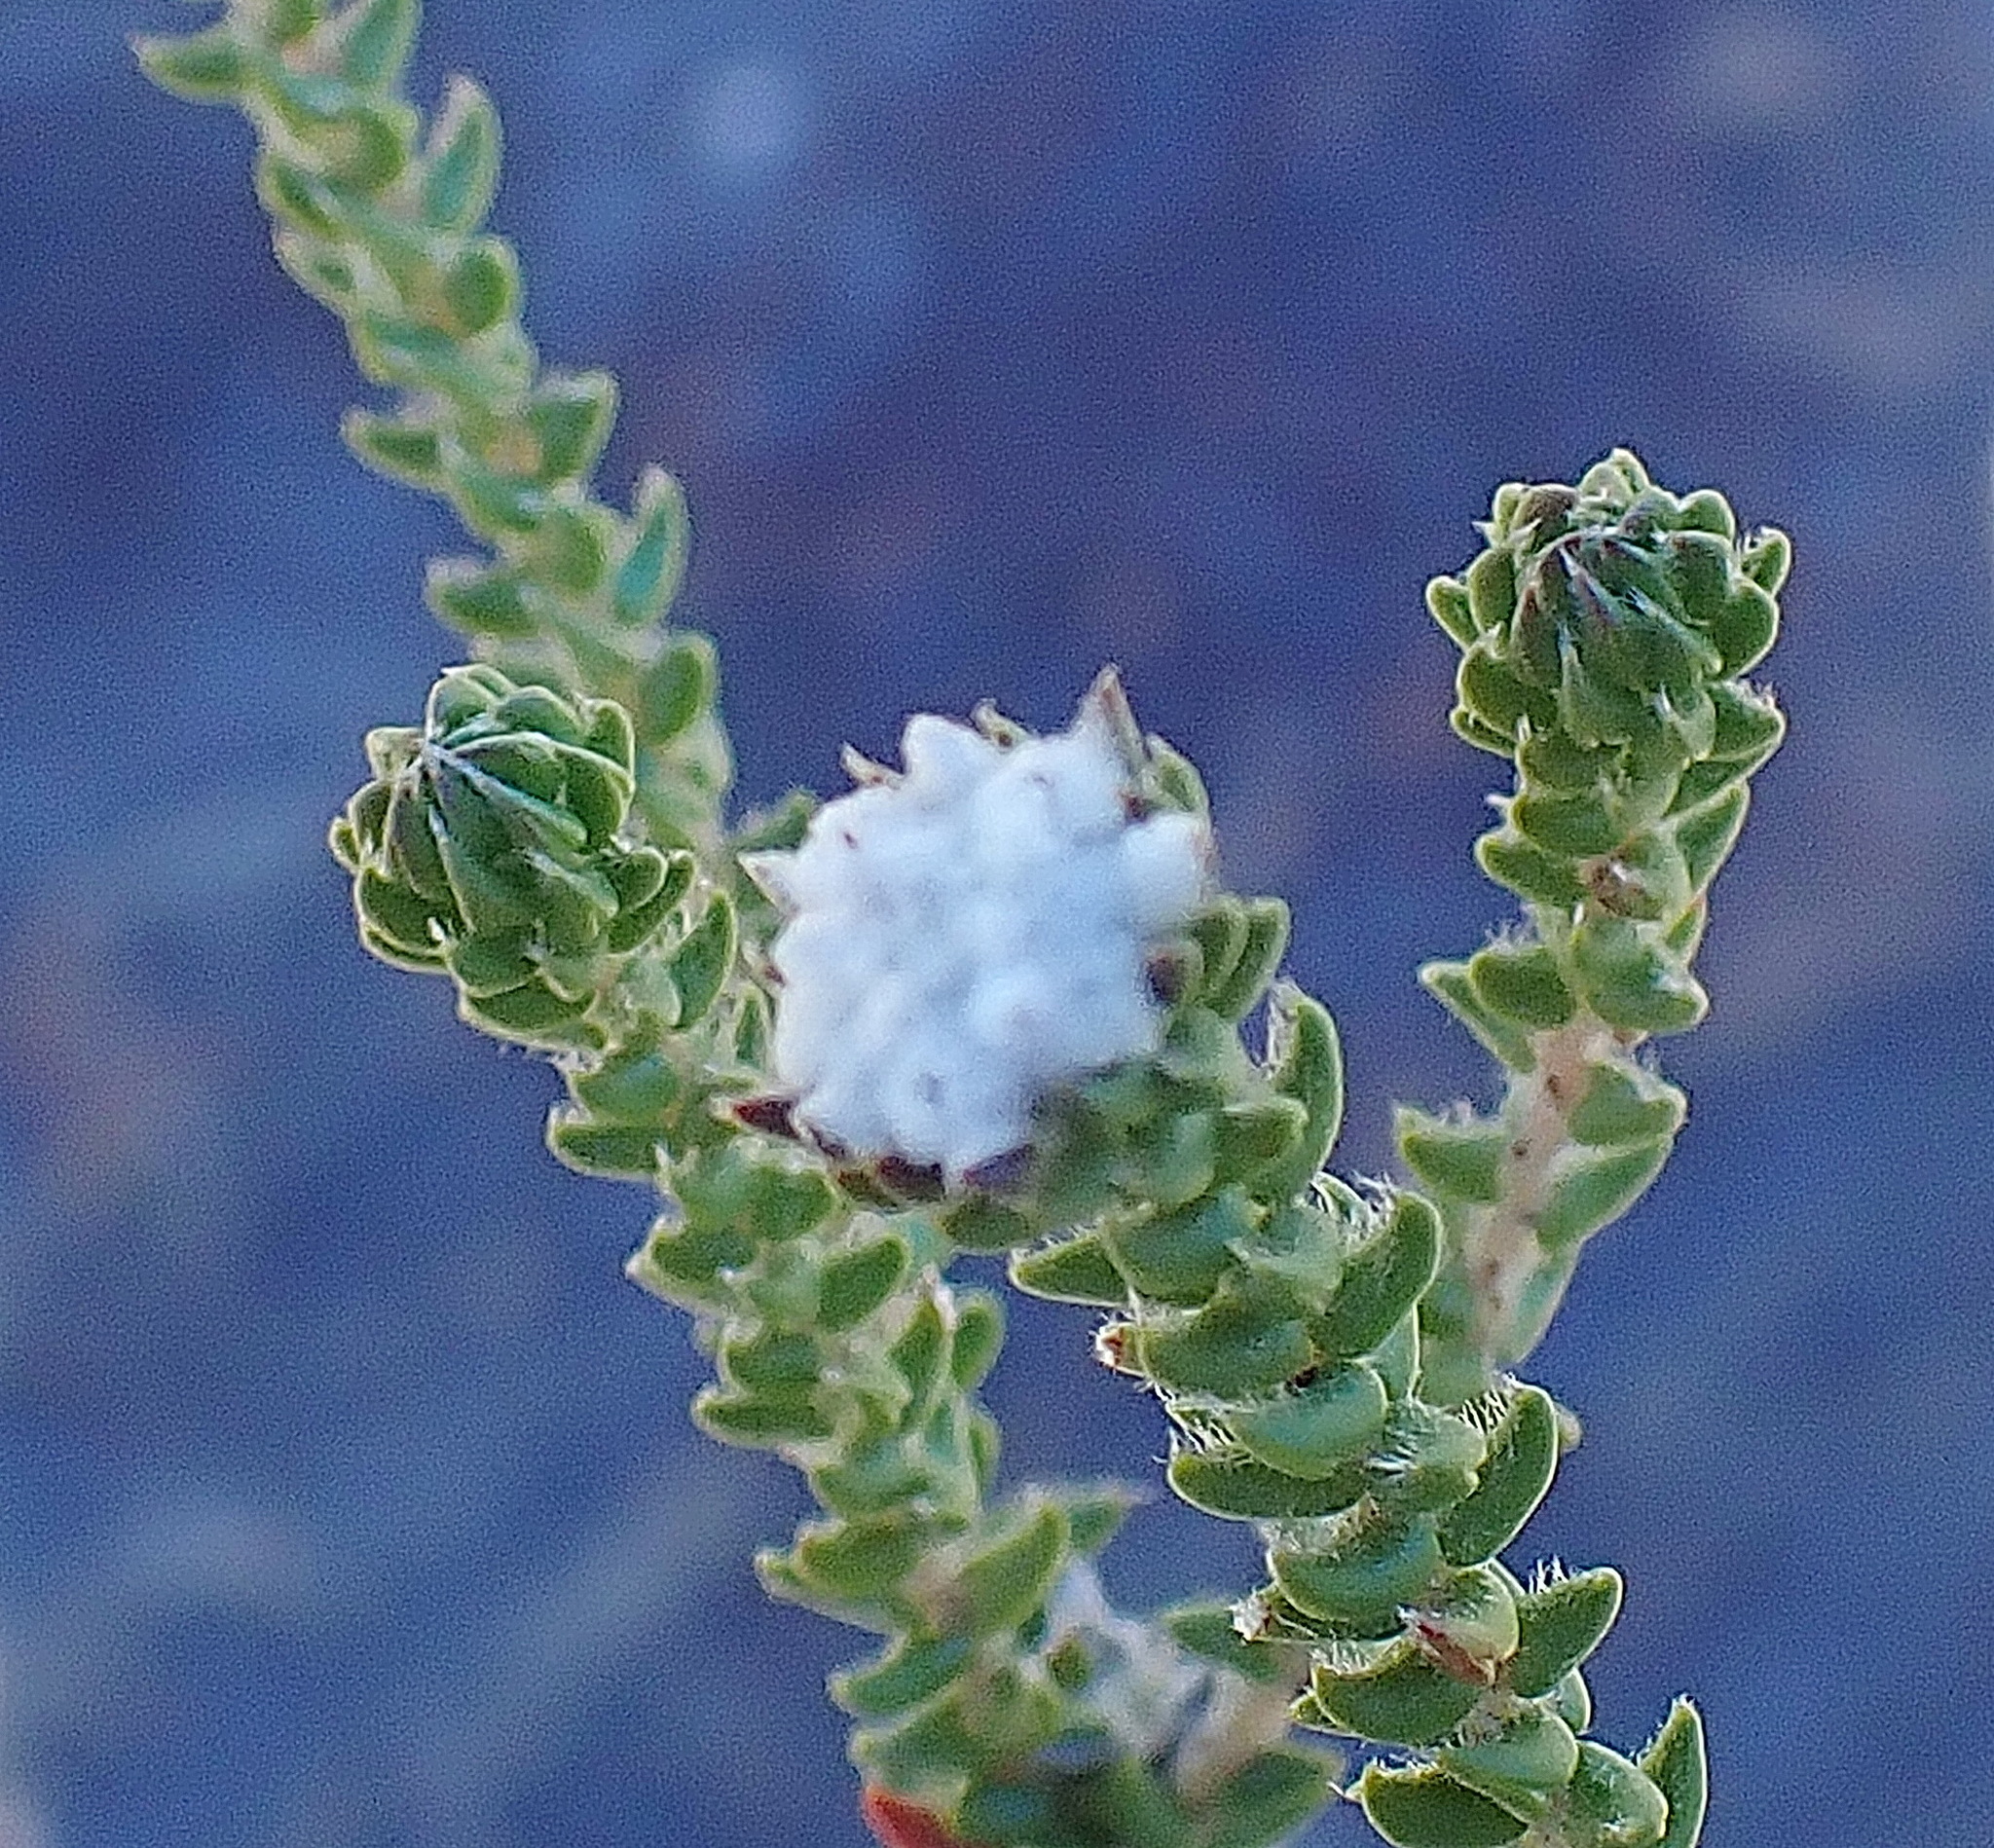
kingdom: Plantae
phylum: Tracheophyta
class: Magnoliopsida
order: Rosales
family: Rhamnaceae
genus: Phylica
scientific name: Phylica debilis
